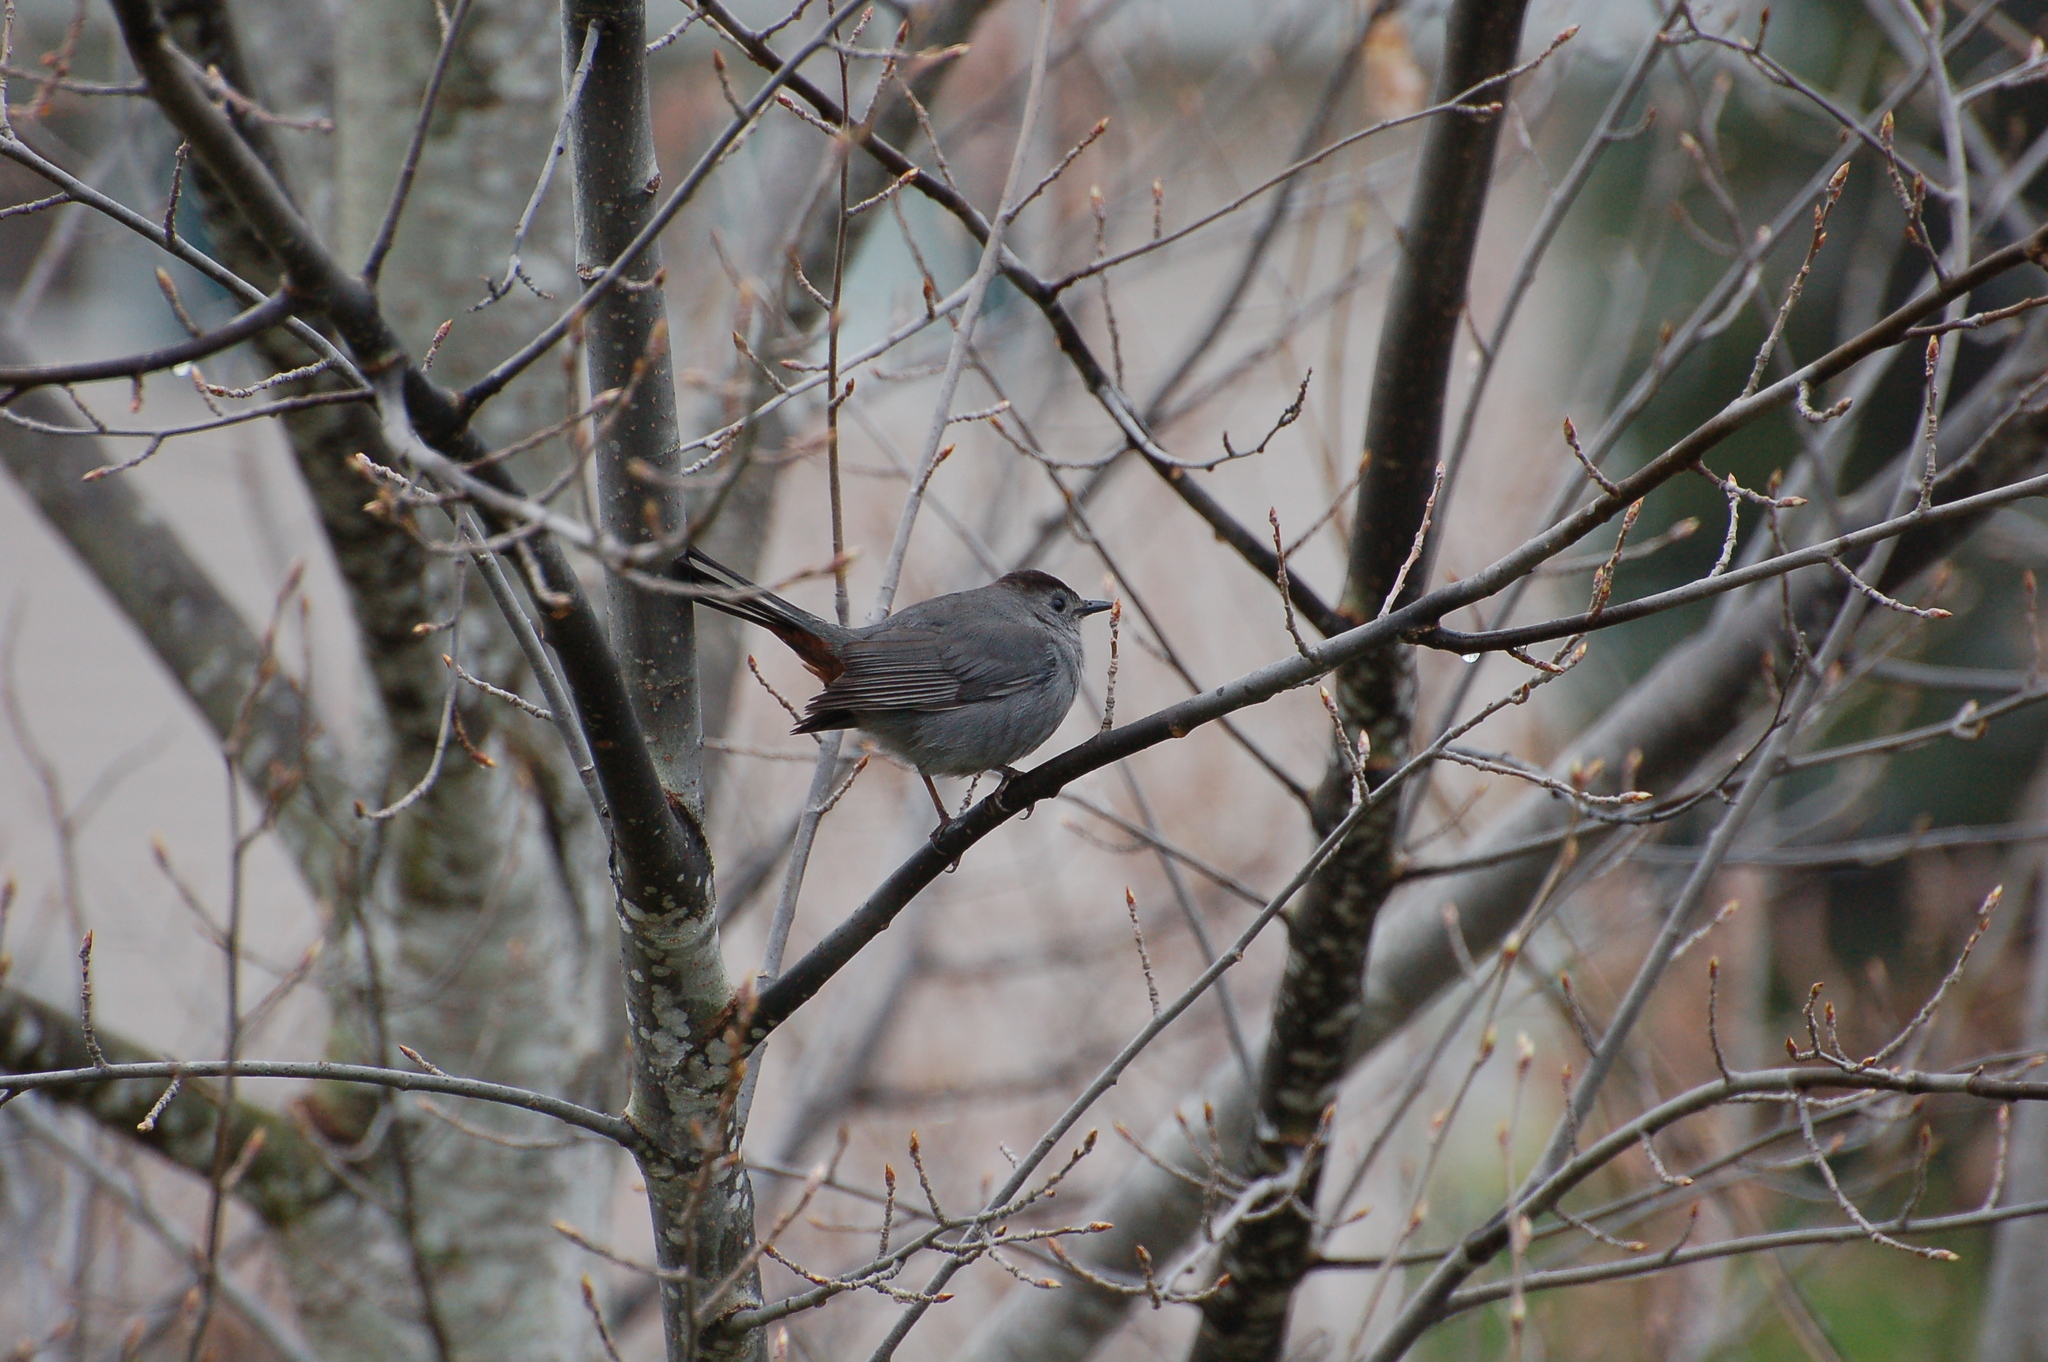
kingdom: Animalia
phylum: Chordata
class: Aves
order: Passeriformes
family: Mimidae
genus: Dumetella
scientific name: Dumetella carolinensis
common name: Gray catbird
